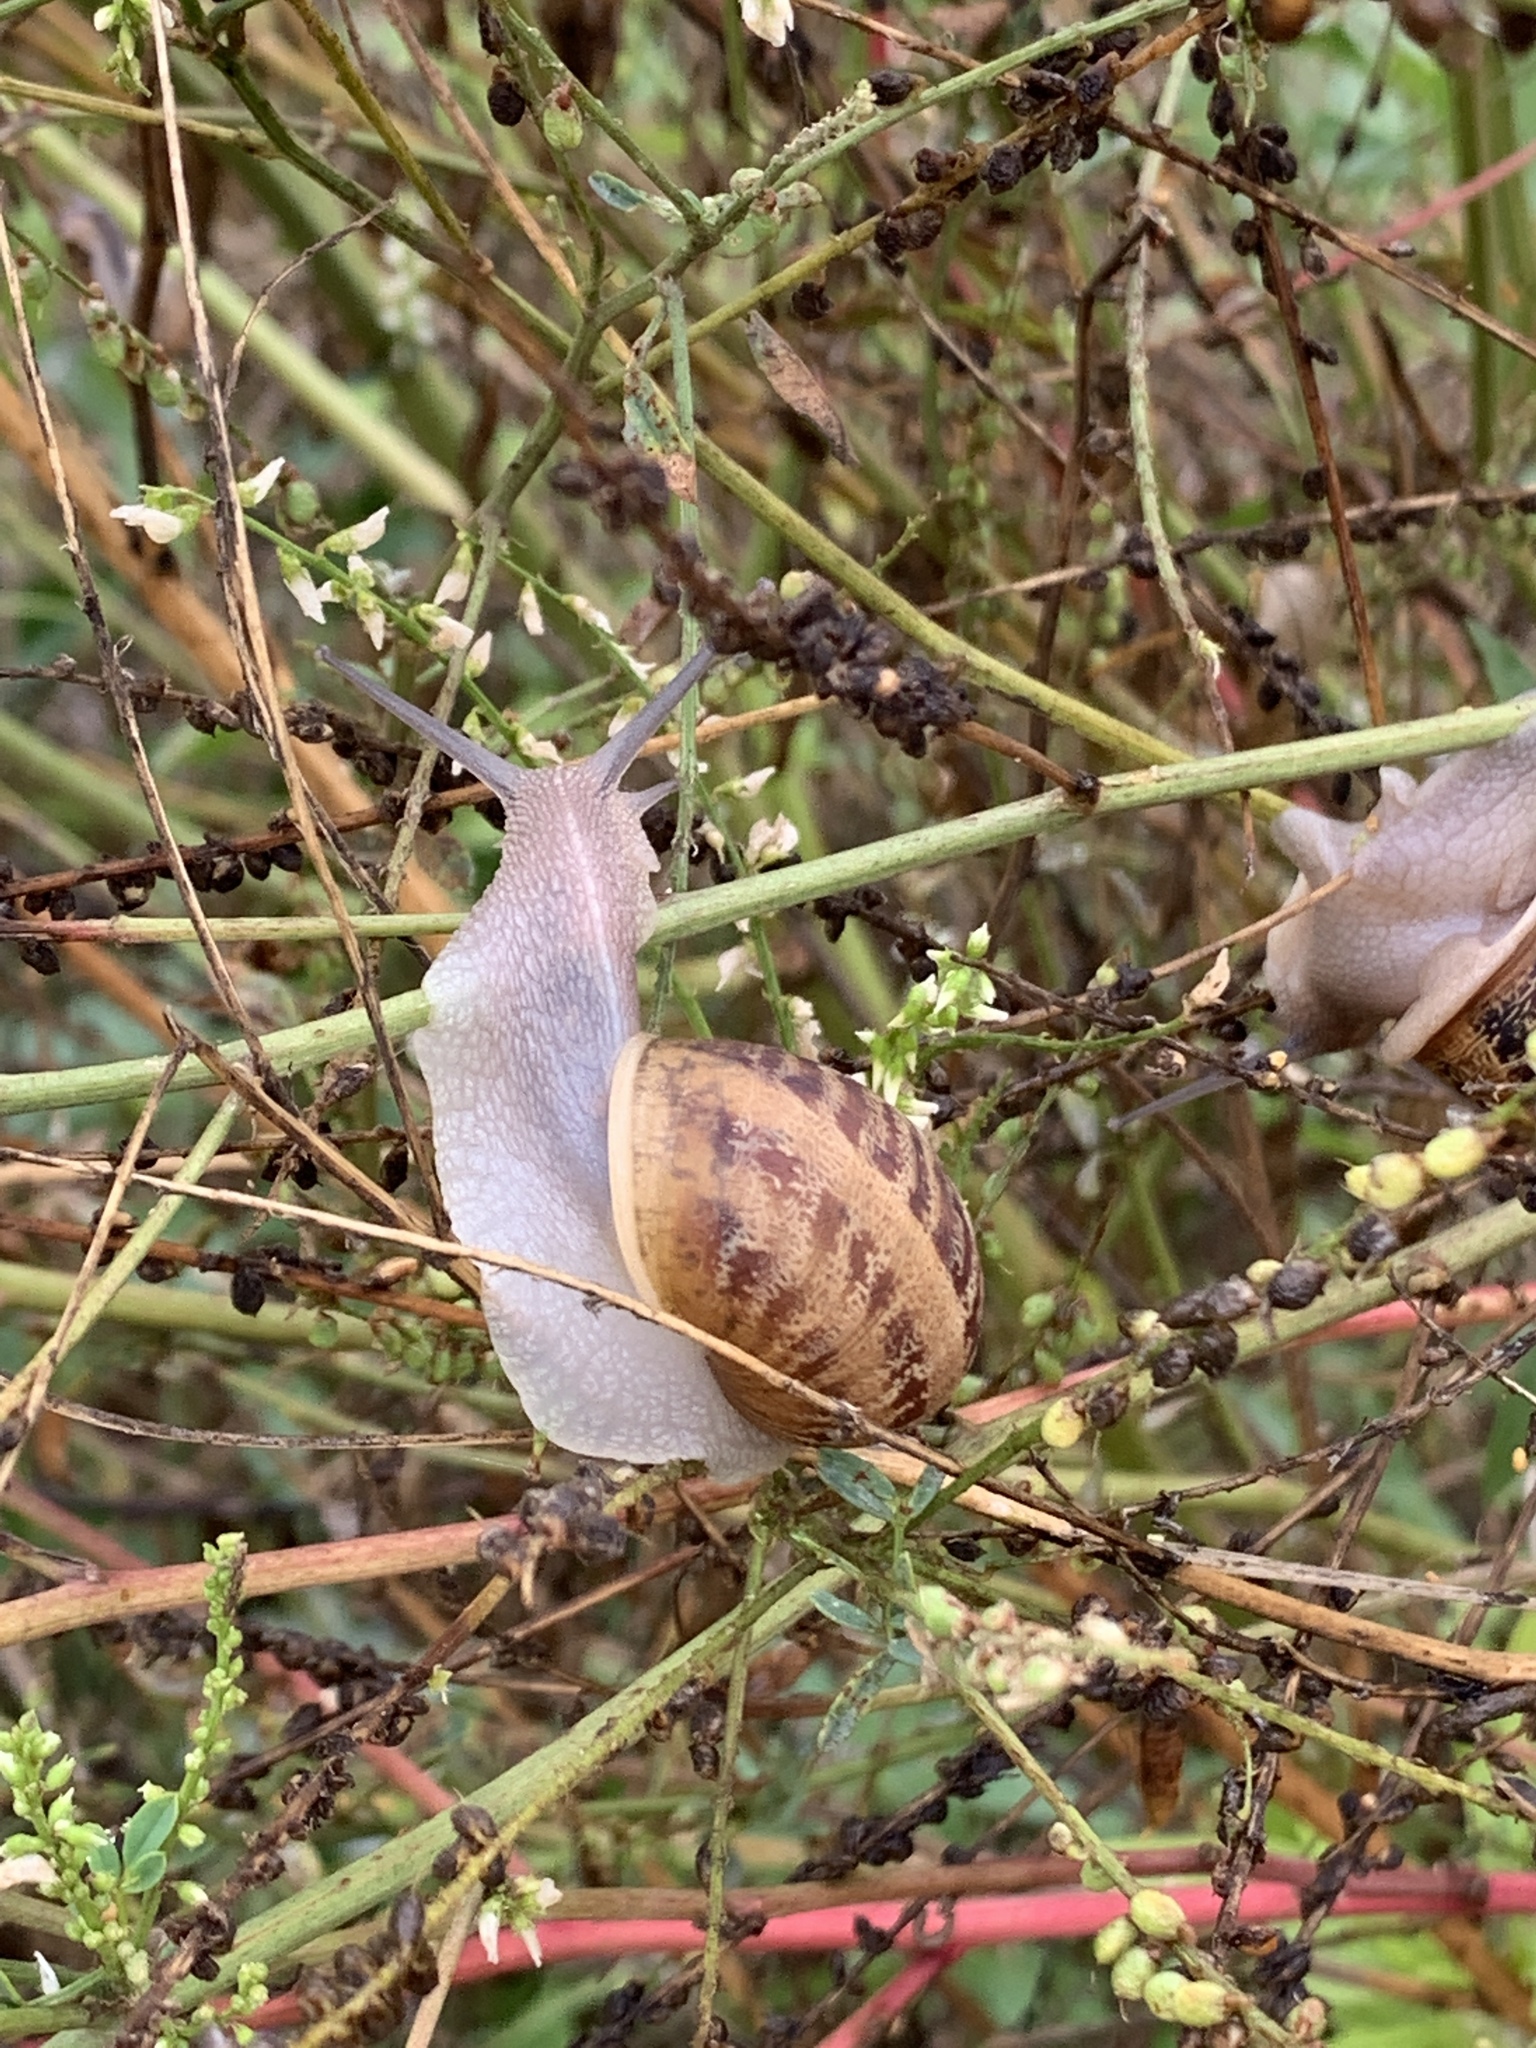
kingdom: Animalia
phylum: Mollusca
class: Gastropoda
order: Stylommatophora
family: Helicidae
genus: Cornu
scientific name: Cornu aspersum
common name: Brown garden snail
